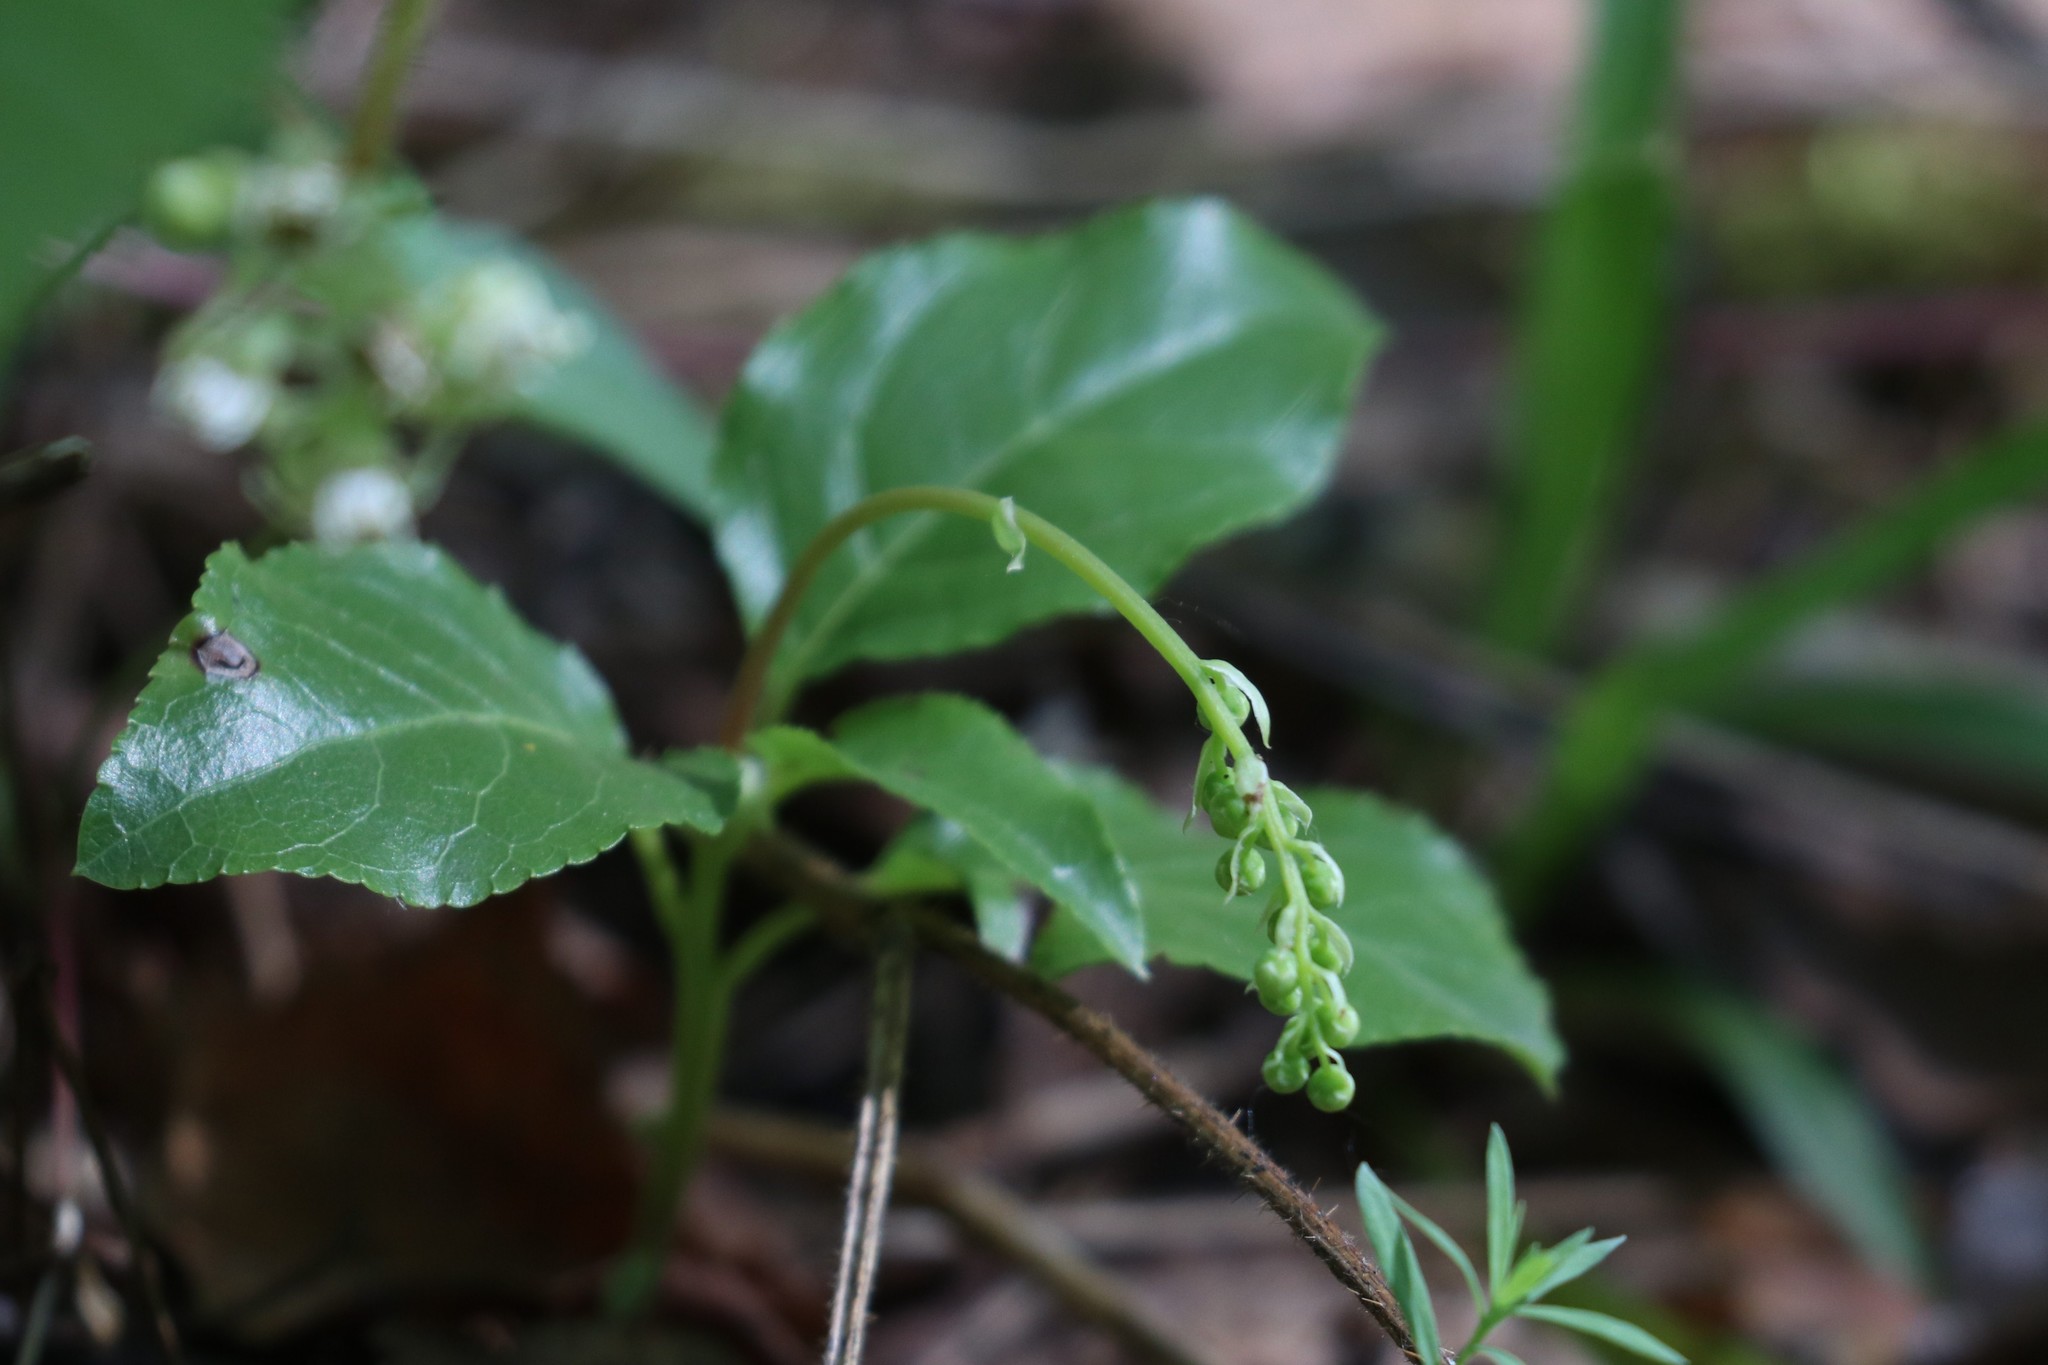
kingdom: Plantae
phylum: Tracheophyta
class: Magnoliopsida
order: Ericales
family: Ericaceae
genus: Orthilia
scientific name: Orthilia secunda
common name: One-sided orthilia
